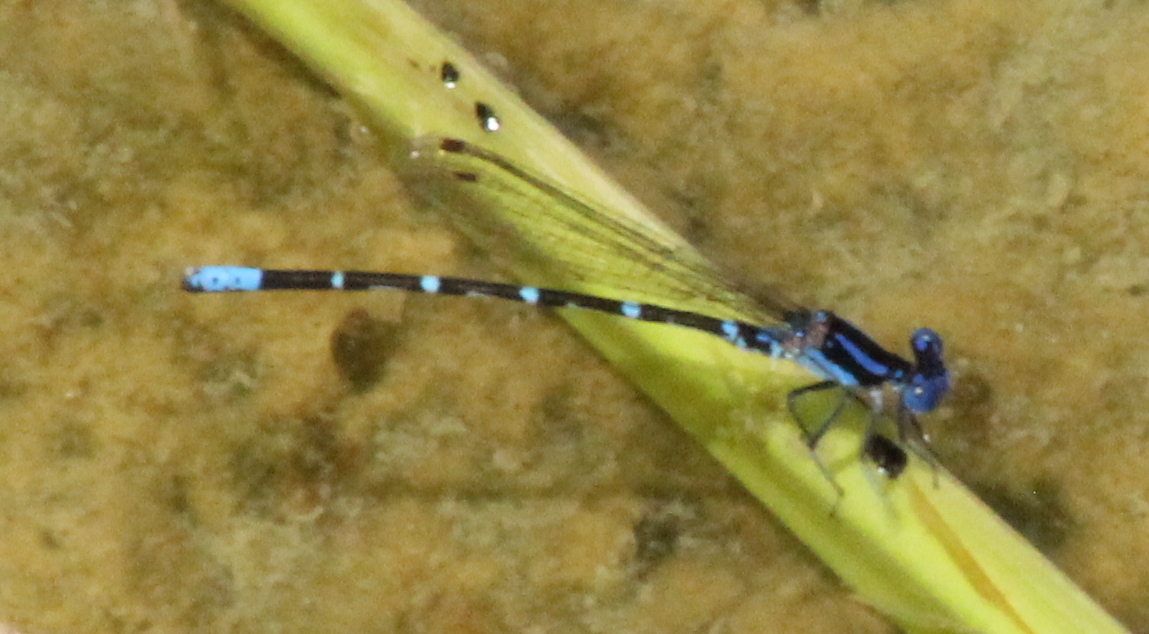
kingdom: Animalia
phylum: Arthropoda
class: Insecta
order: Odonata
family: Coenagrionidae
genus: Argia
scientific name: Argia sedula
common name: Blue-ringed dancer
